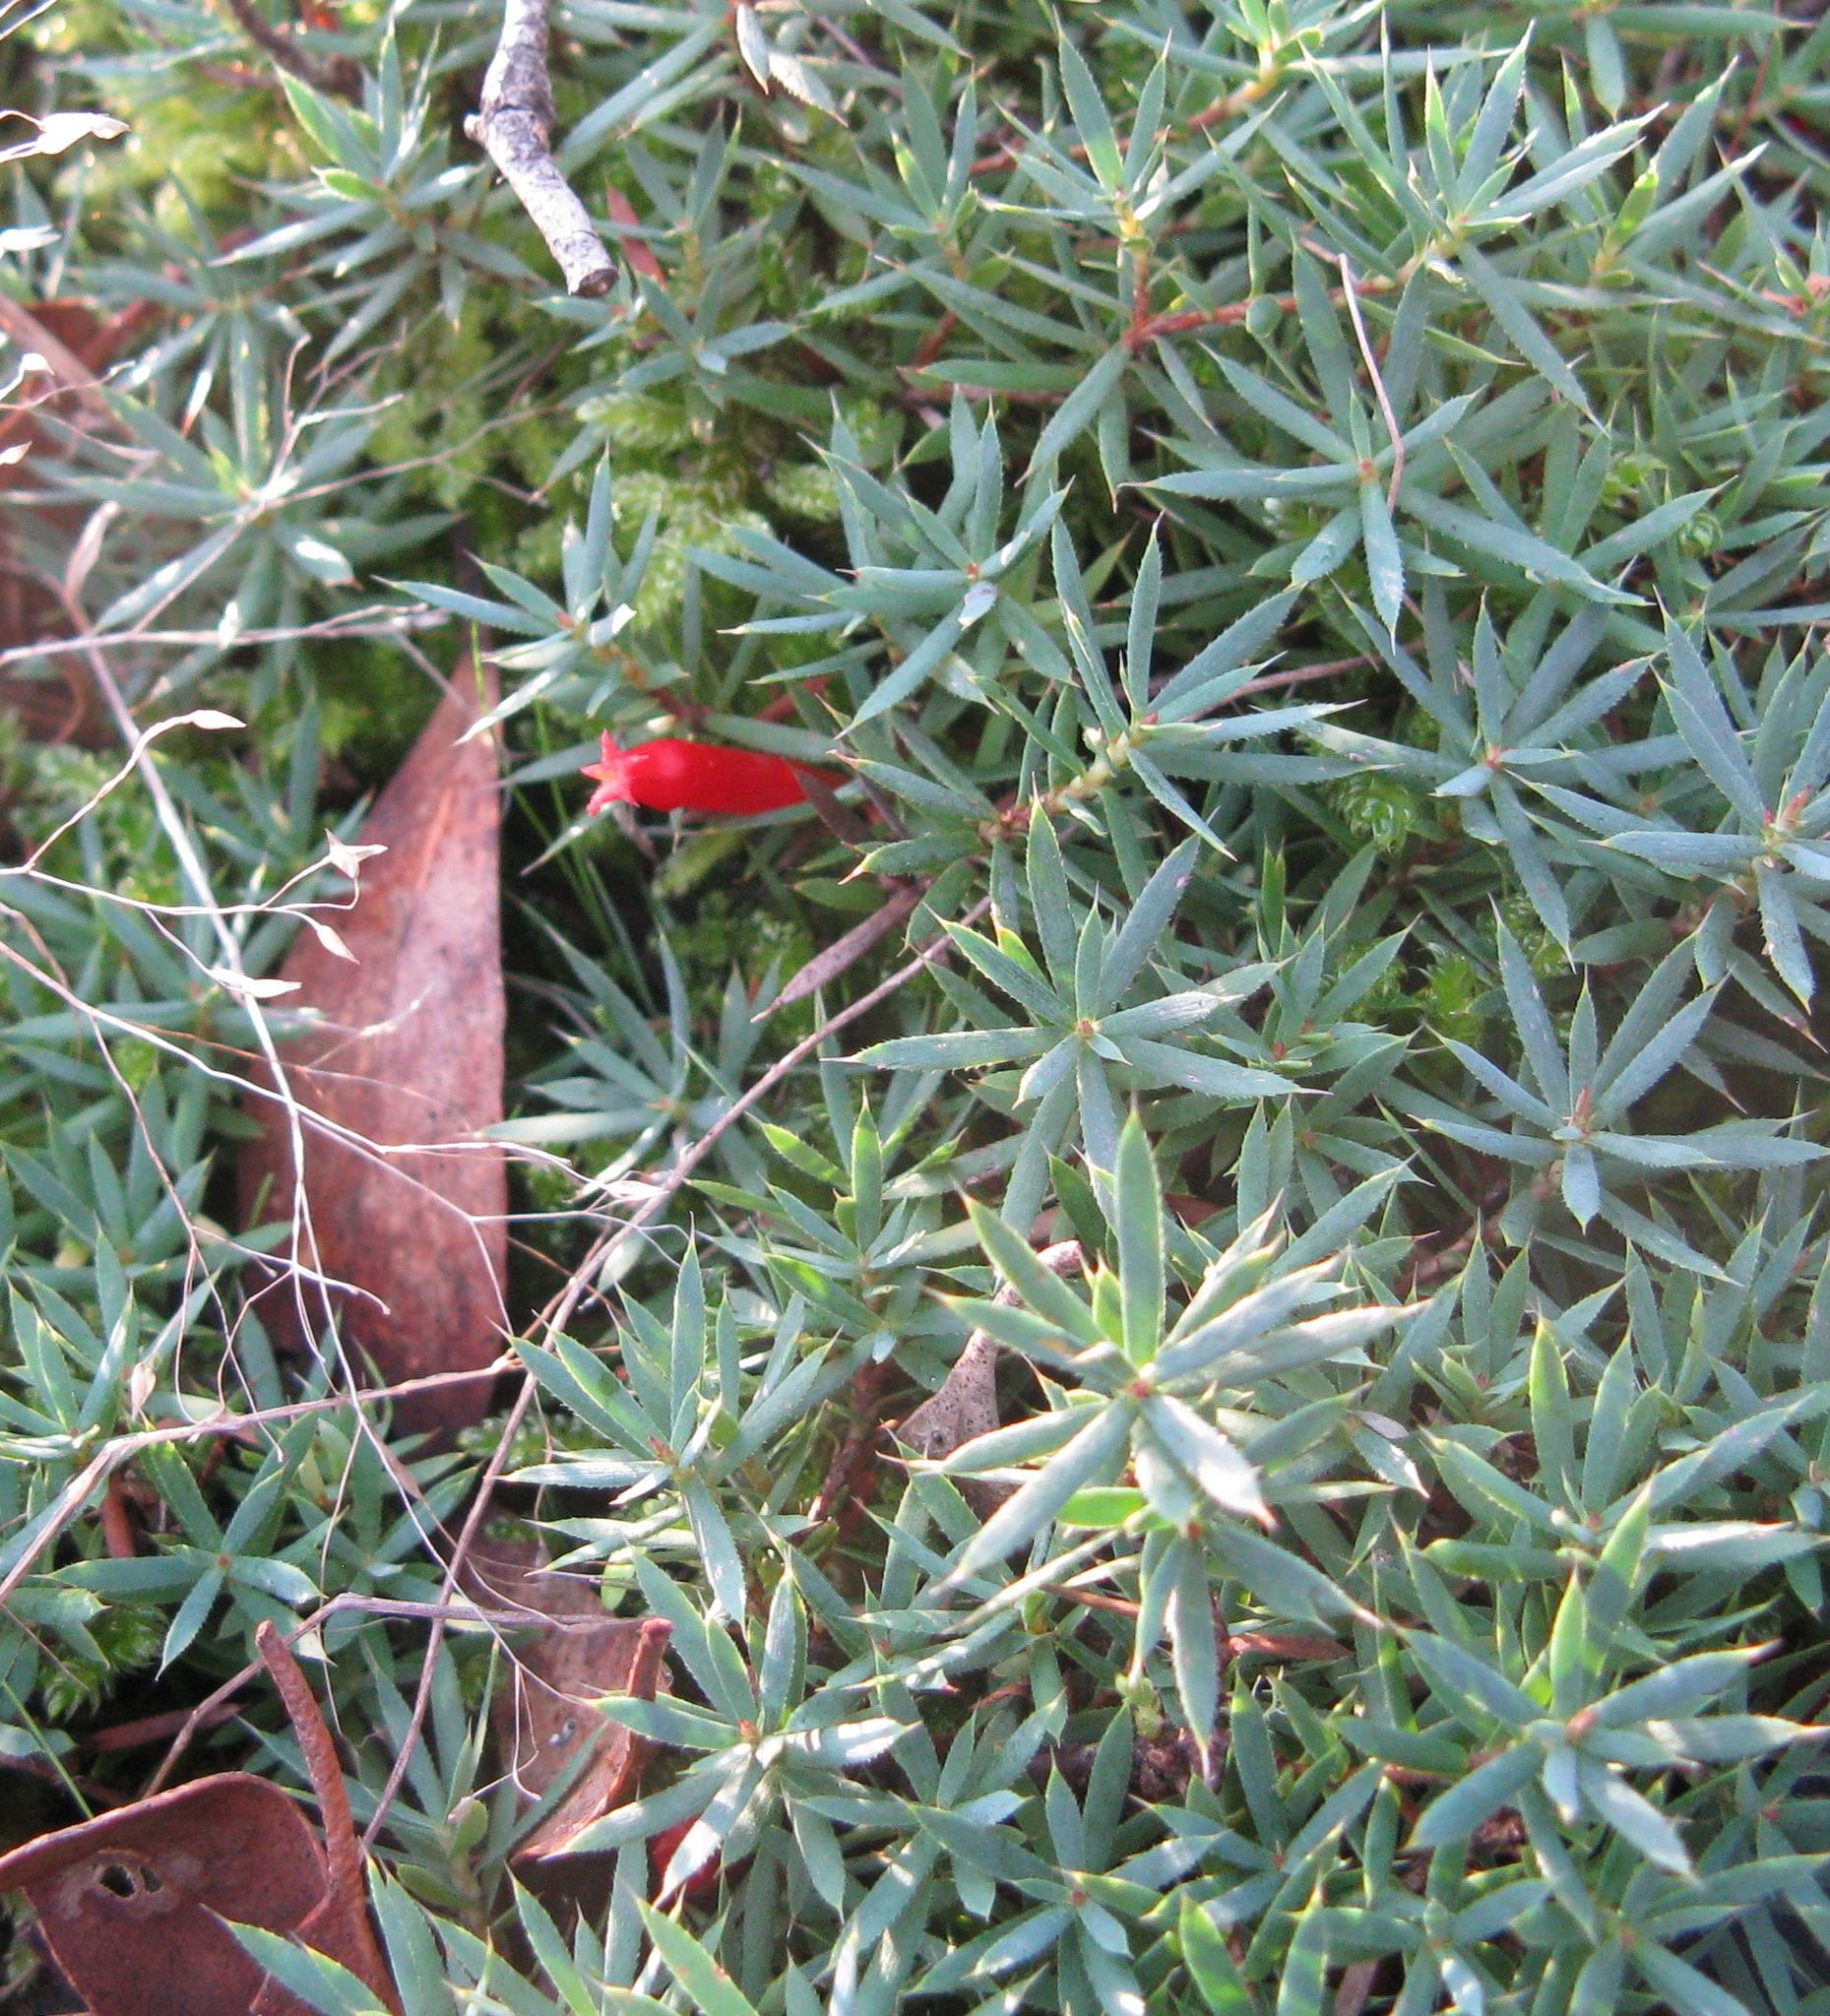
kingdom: Plantae
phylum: Tracheophyta
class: Magnoliopsida
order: Ericales
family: Ericaceae
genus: Styphelia
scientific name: Styphelia humifusa
